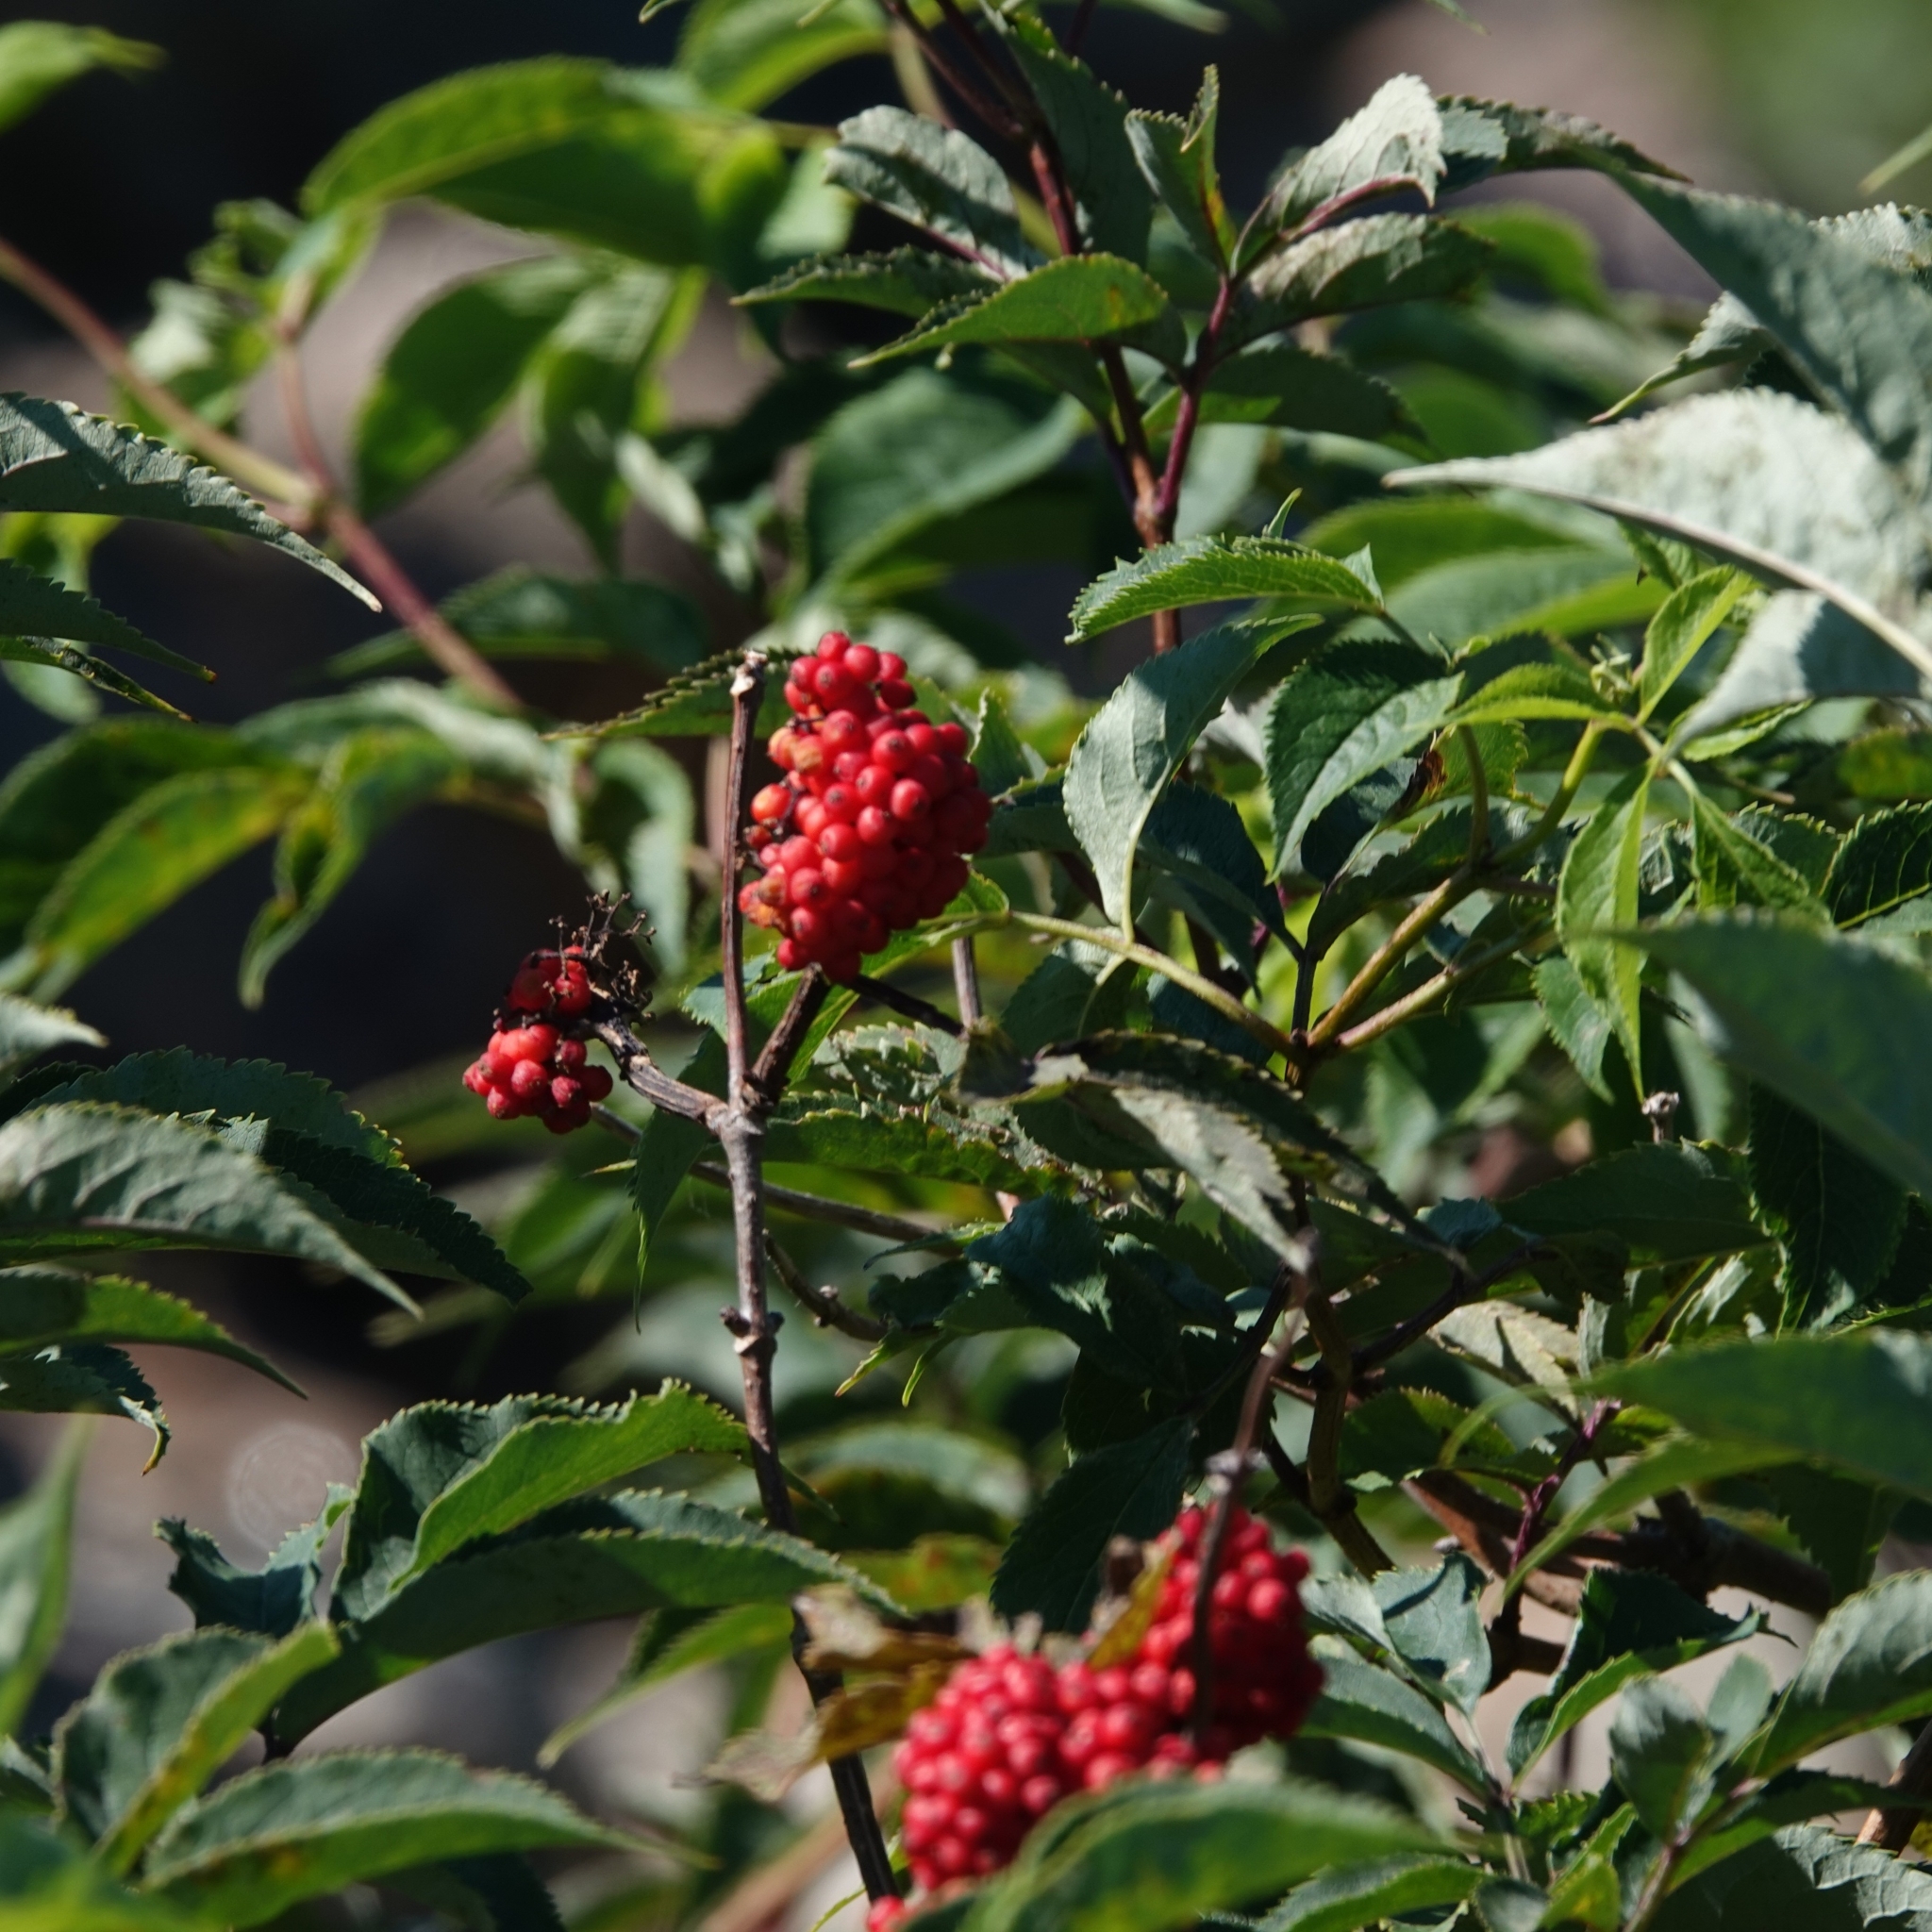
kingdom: Plantae
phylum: Tracheophyta
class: Magnoliopsida
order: Dipsacales
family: Viburnaceae
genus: Sambucus
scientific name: Sambucus racemosa
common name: Red-berried elder
